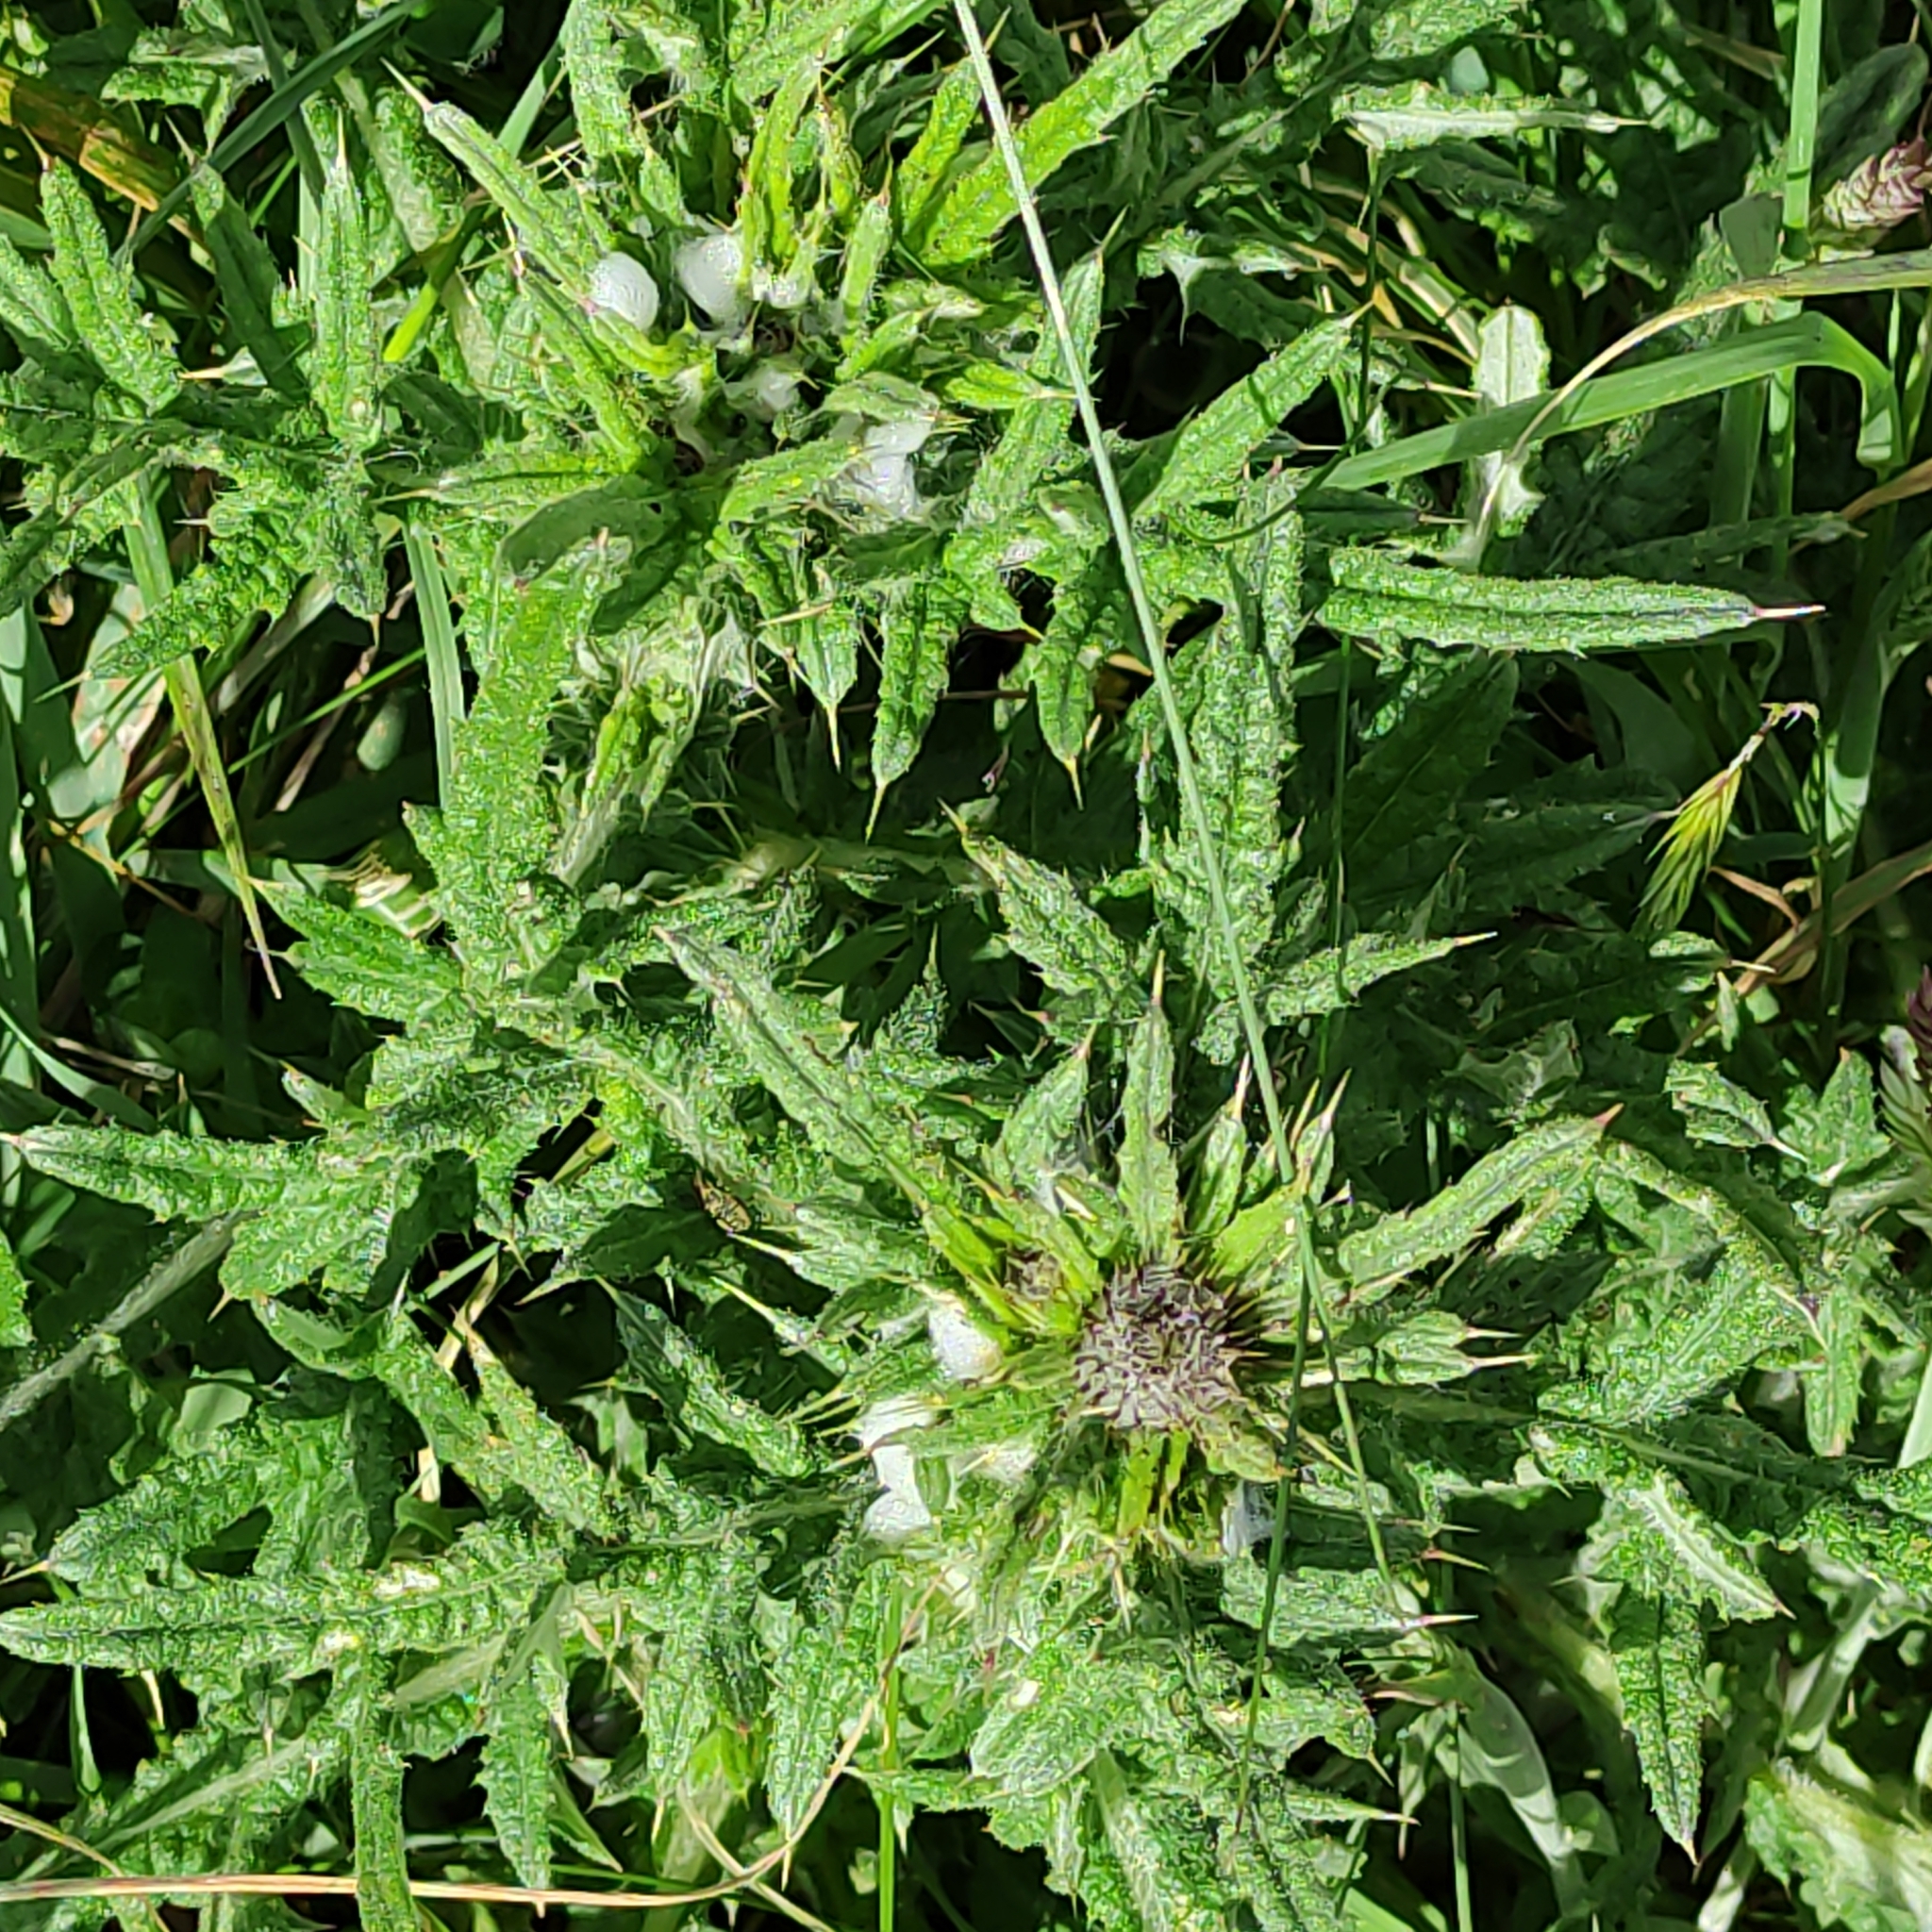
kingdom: Plantae
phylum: Tracheophyta
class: Magnoliopsida
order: Asterales
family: Asteraceae
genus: Cirsium
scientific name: Cirsium vulgare
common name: Bull thistle
